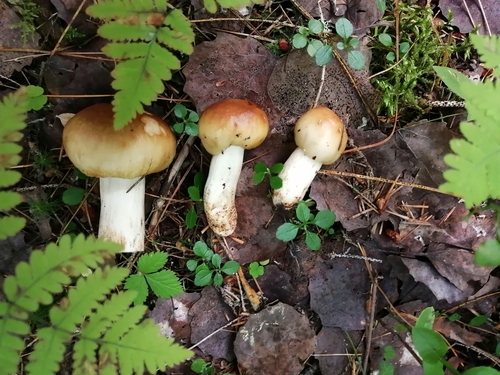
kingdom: Fungi
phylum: Basidiomycota
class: Agaricomycetes
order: Russulales
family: Russulaceae
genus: Russula
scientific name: Russula foetens
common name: Foetid russula
